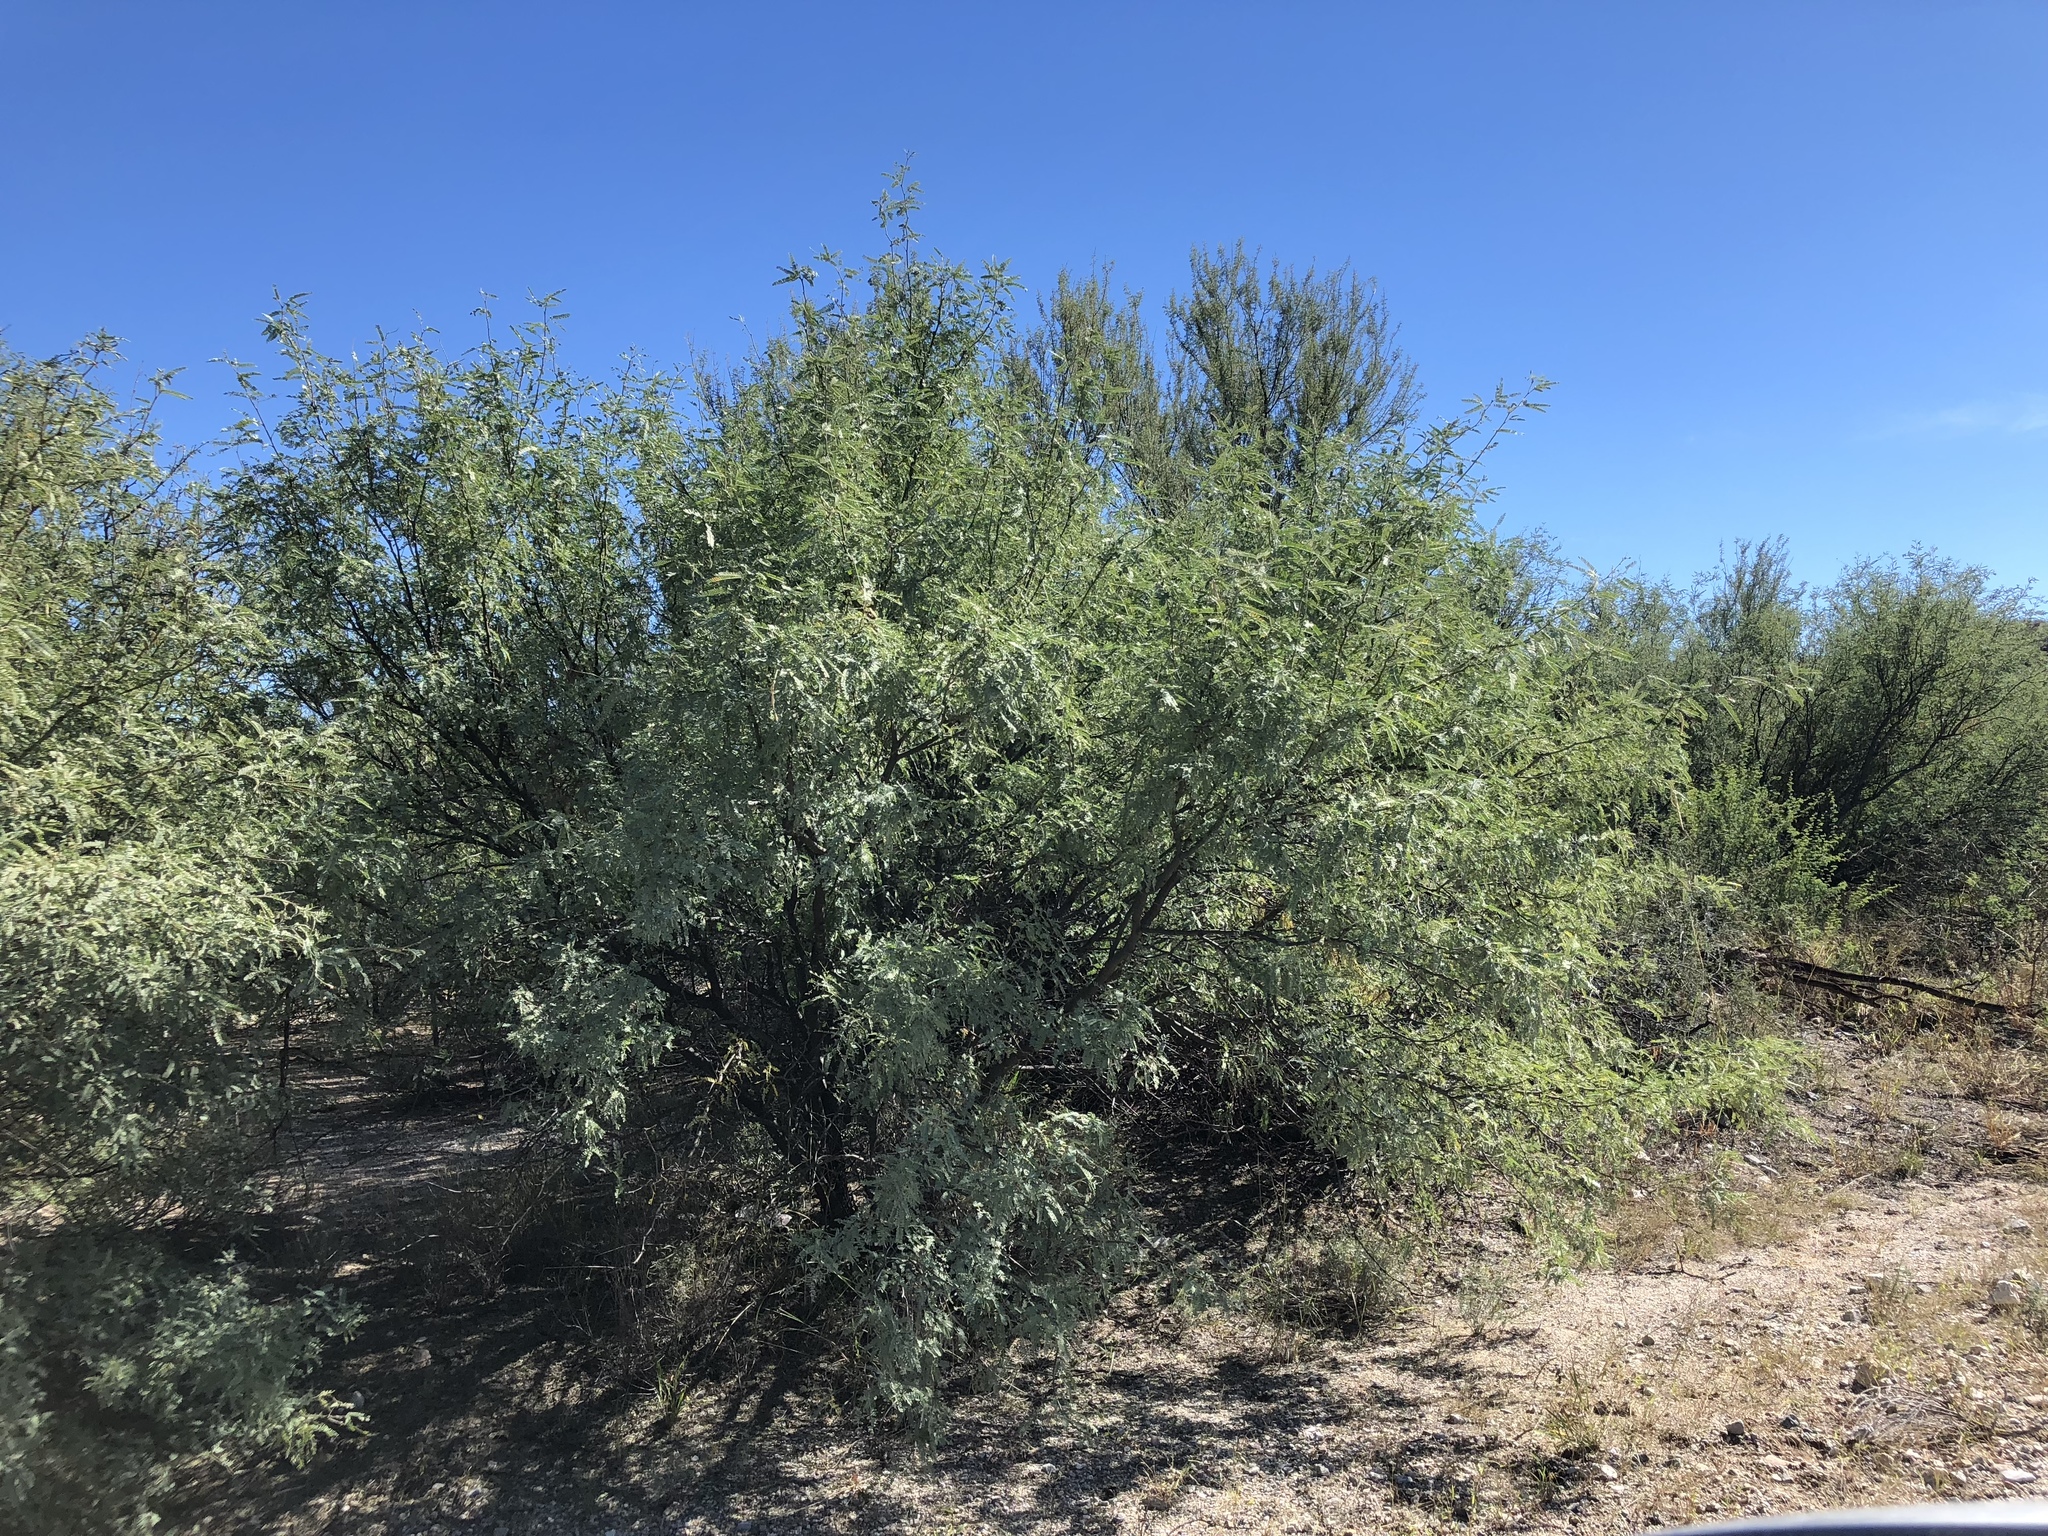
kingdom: Plantae
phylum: Tracheophyta
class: Magnoliopsida
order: Fabales
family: Fabaceae
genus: Prosopis
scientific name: Prosopis velutina
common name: Velvet mesquite
